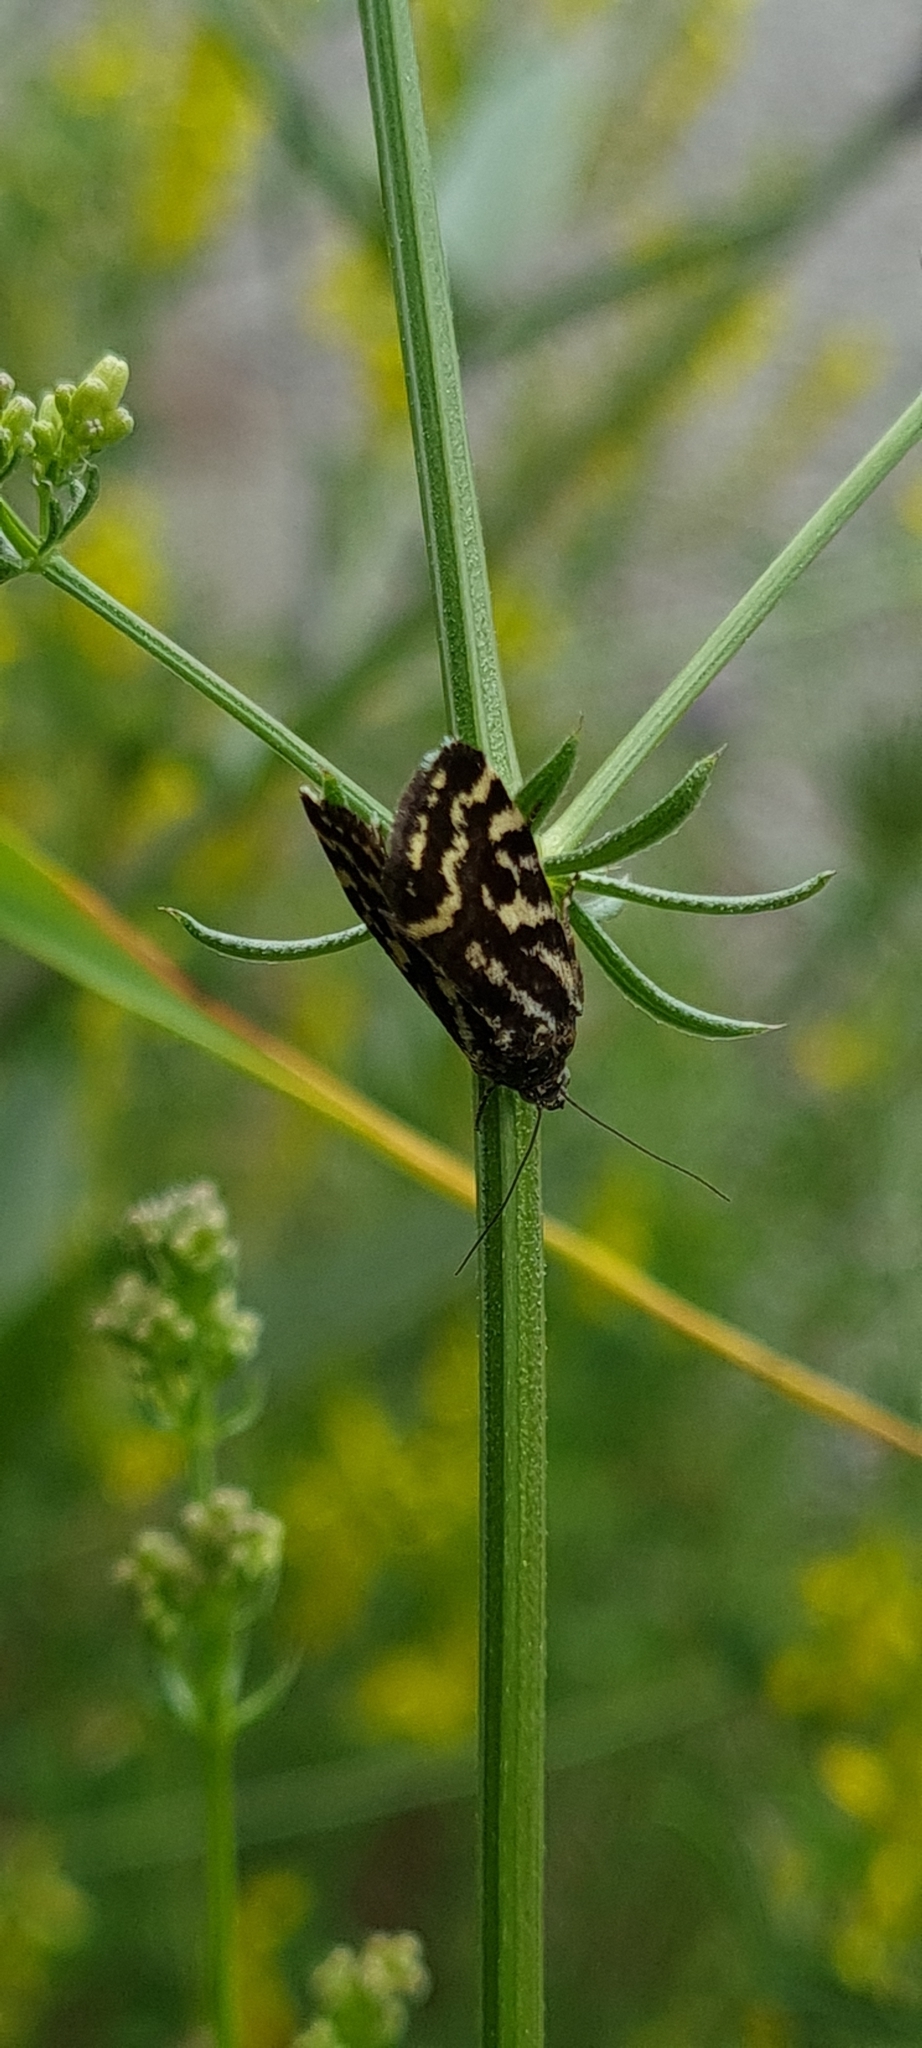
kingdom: Animalia
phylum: Arthropoda
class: Insecta
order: Lepidoptera
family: Noctuidae
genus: Acontia
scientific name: Acontia trabealis
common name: Spotted sulphur
